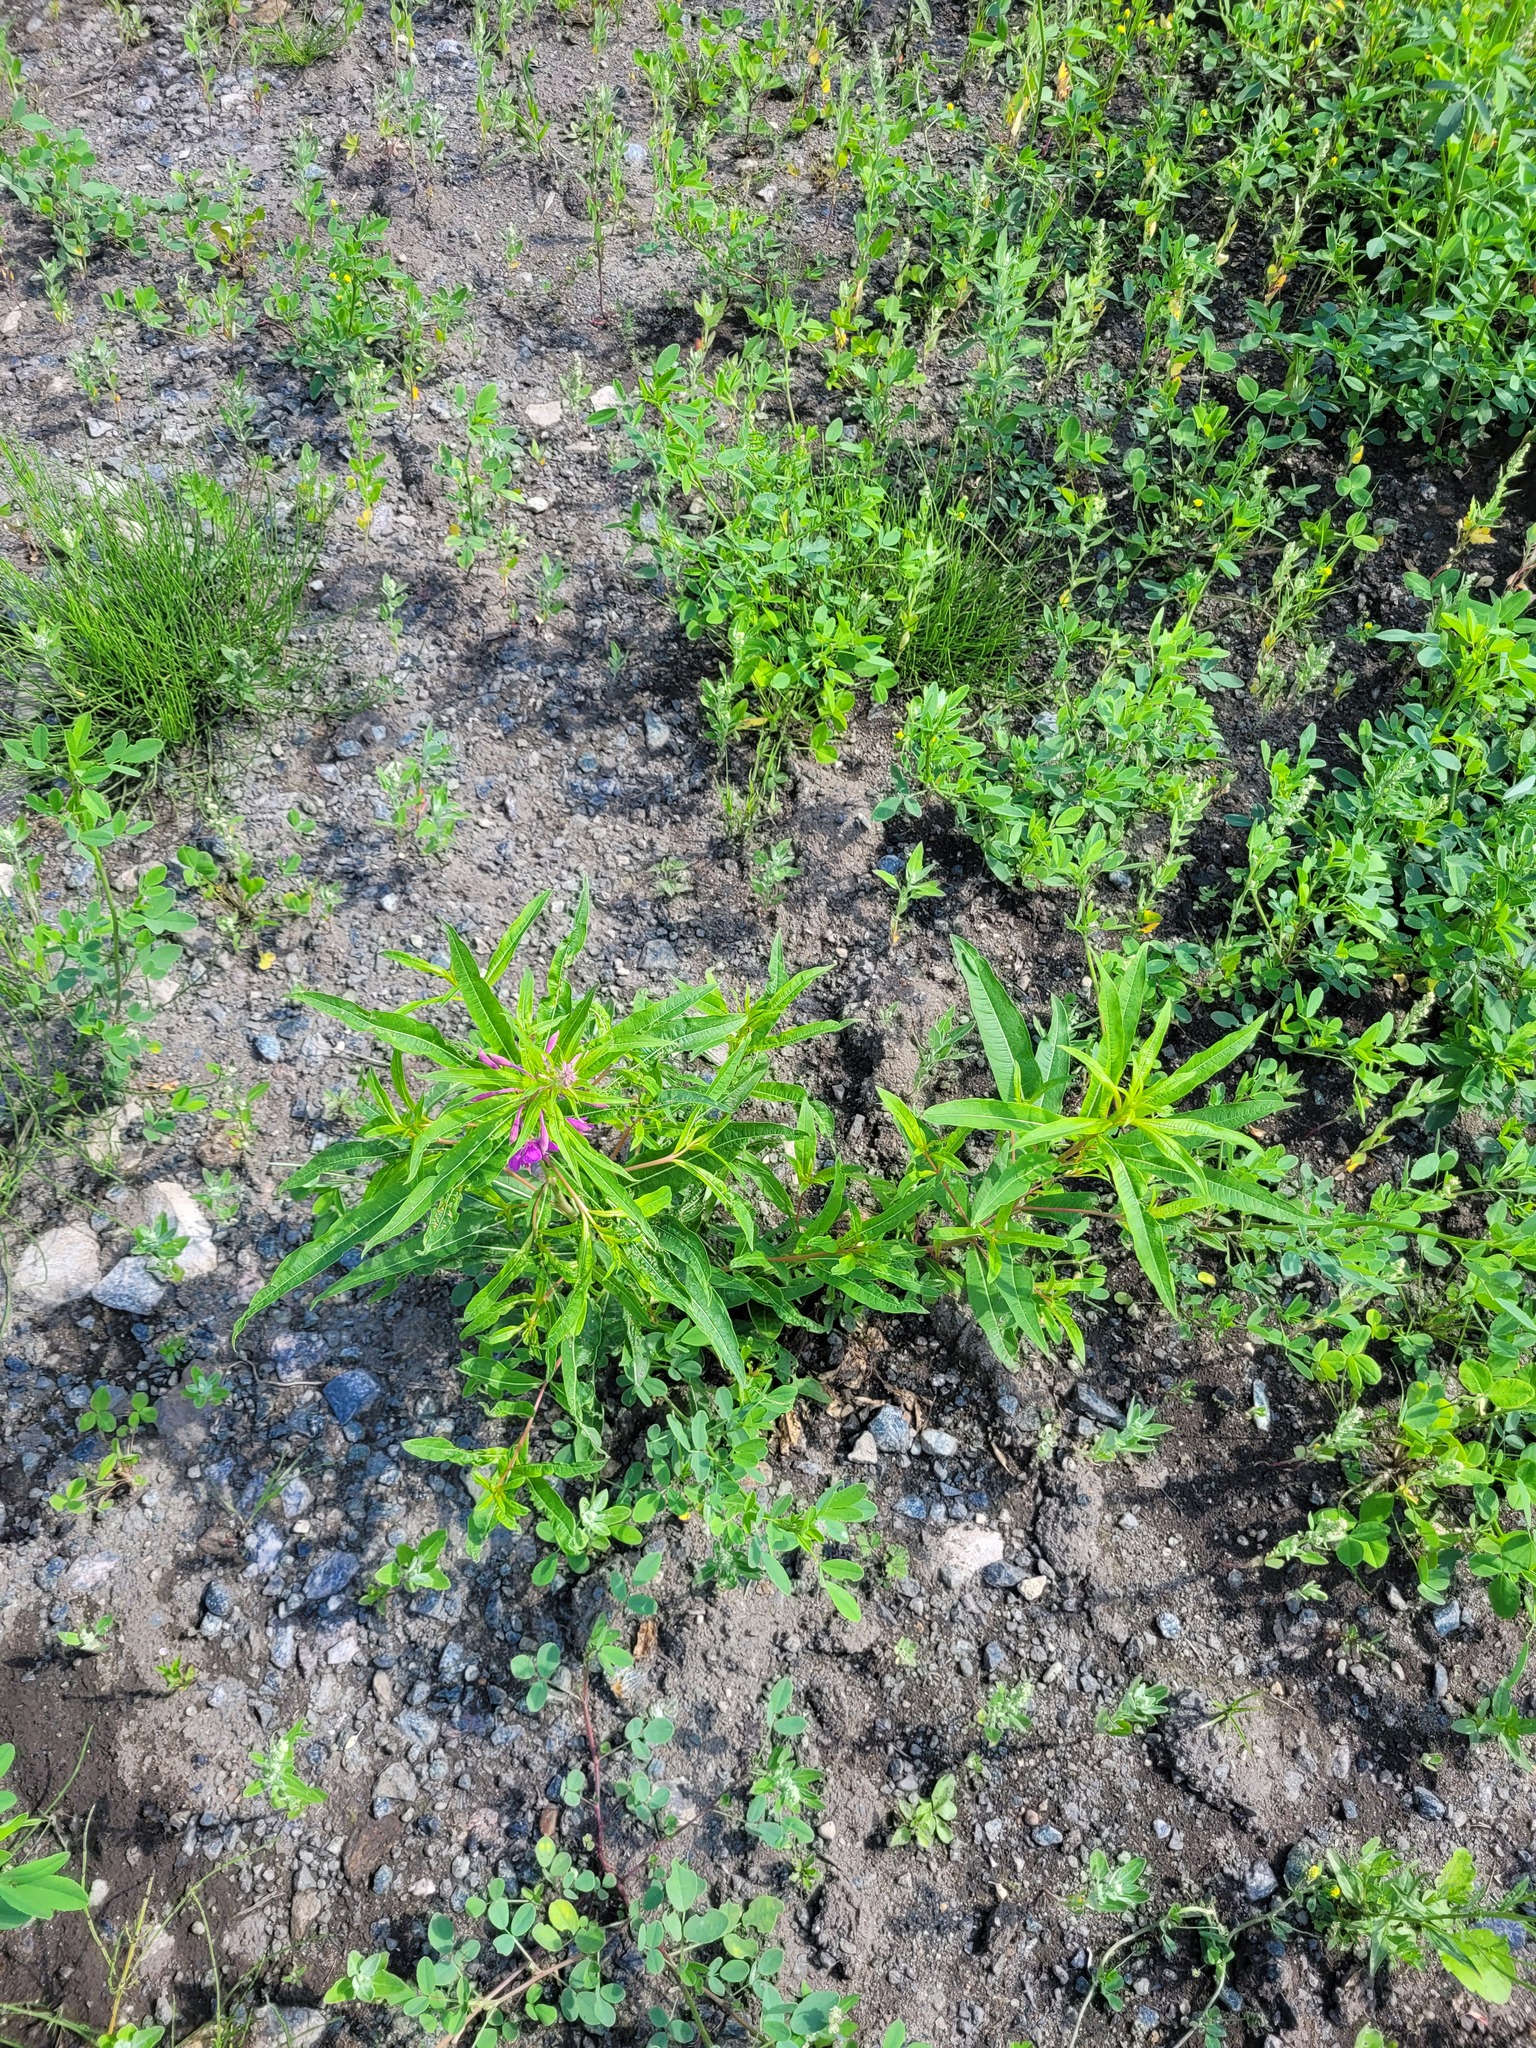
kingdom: Plantae
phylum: Tracheophyta
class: Magnoliopsida
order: Myrtales
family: Onagraceae
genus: Chamaenerion
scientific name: Chamaenerion angustifolium
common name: Fireweed
